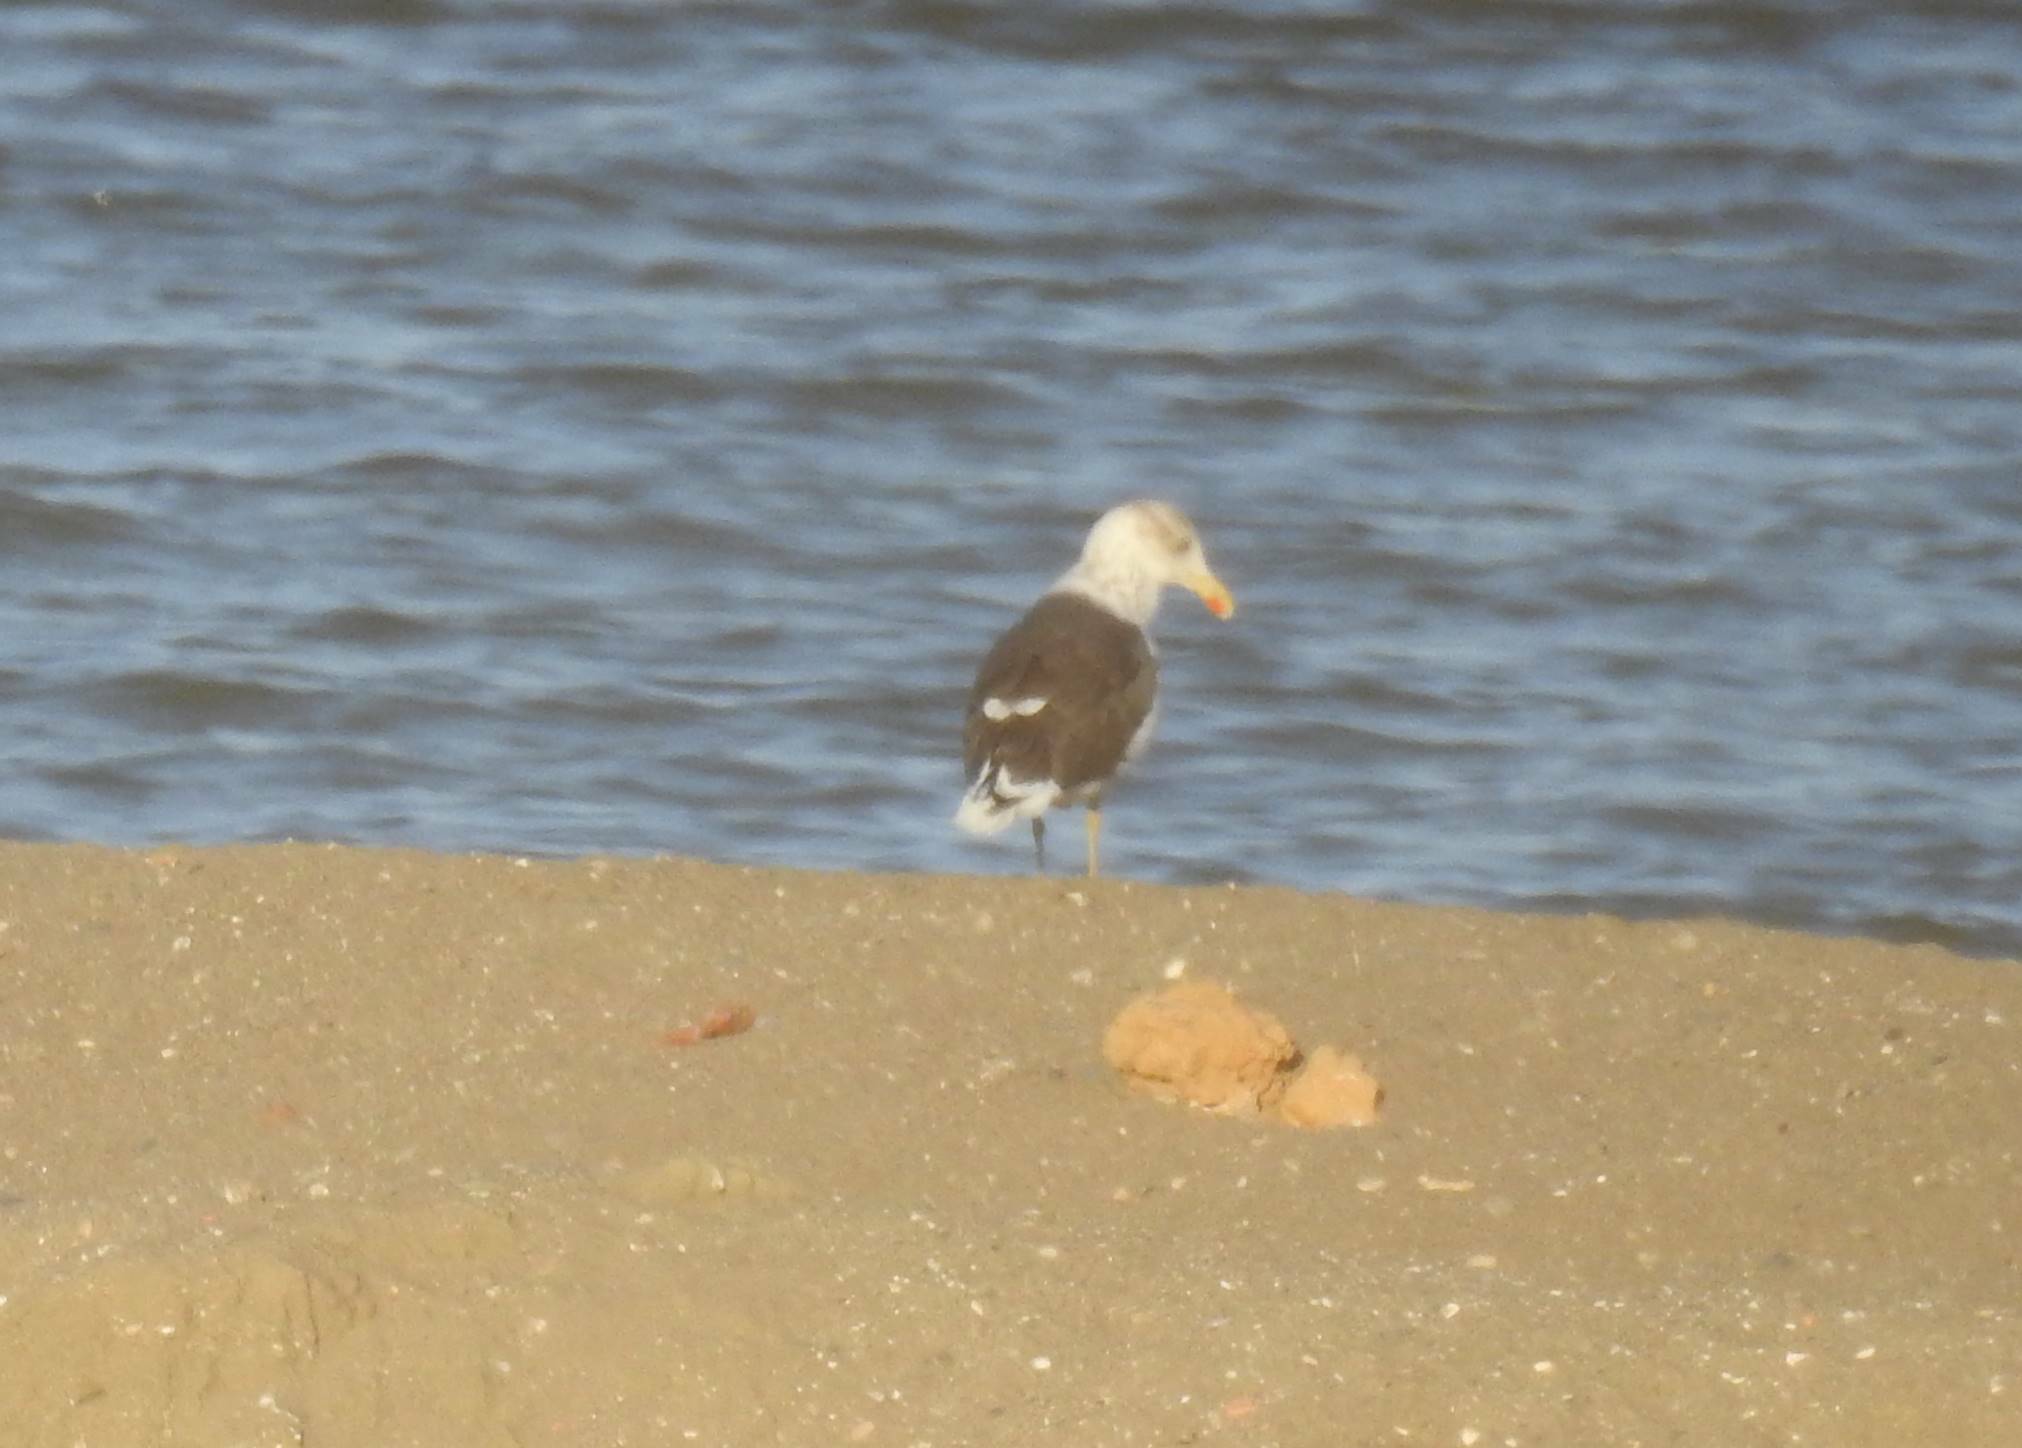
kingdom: Animalia
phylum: Chordata
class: Aves
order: Charadriiformes
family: Laridae
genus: Larus
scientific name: Larus fuscus
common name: Lesser black-backed gull
